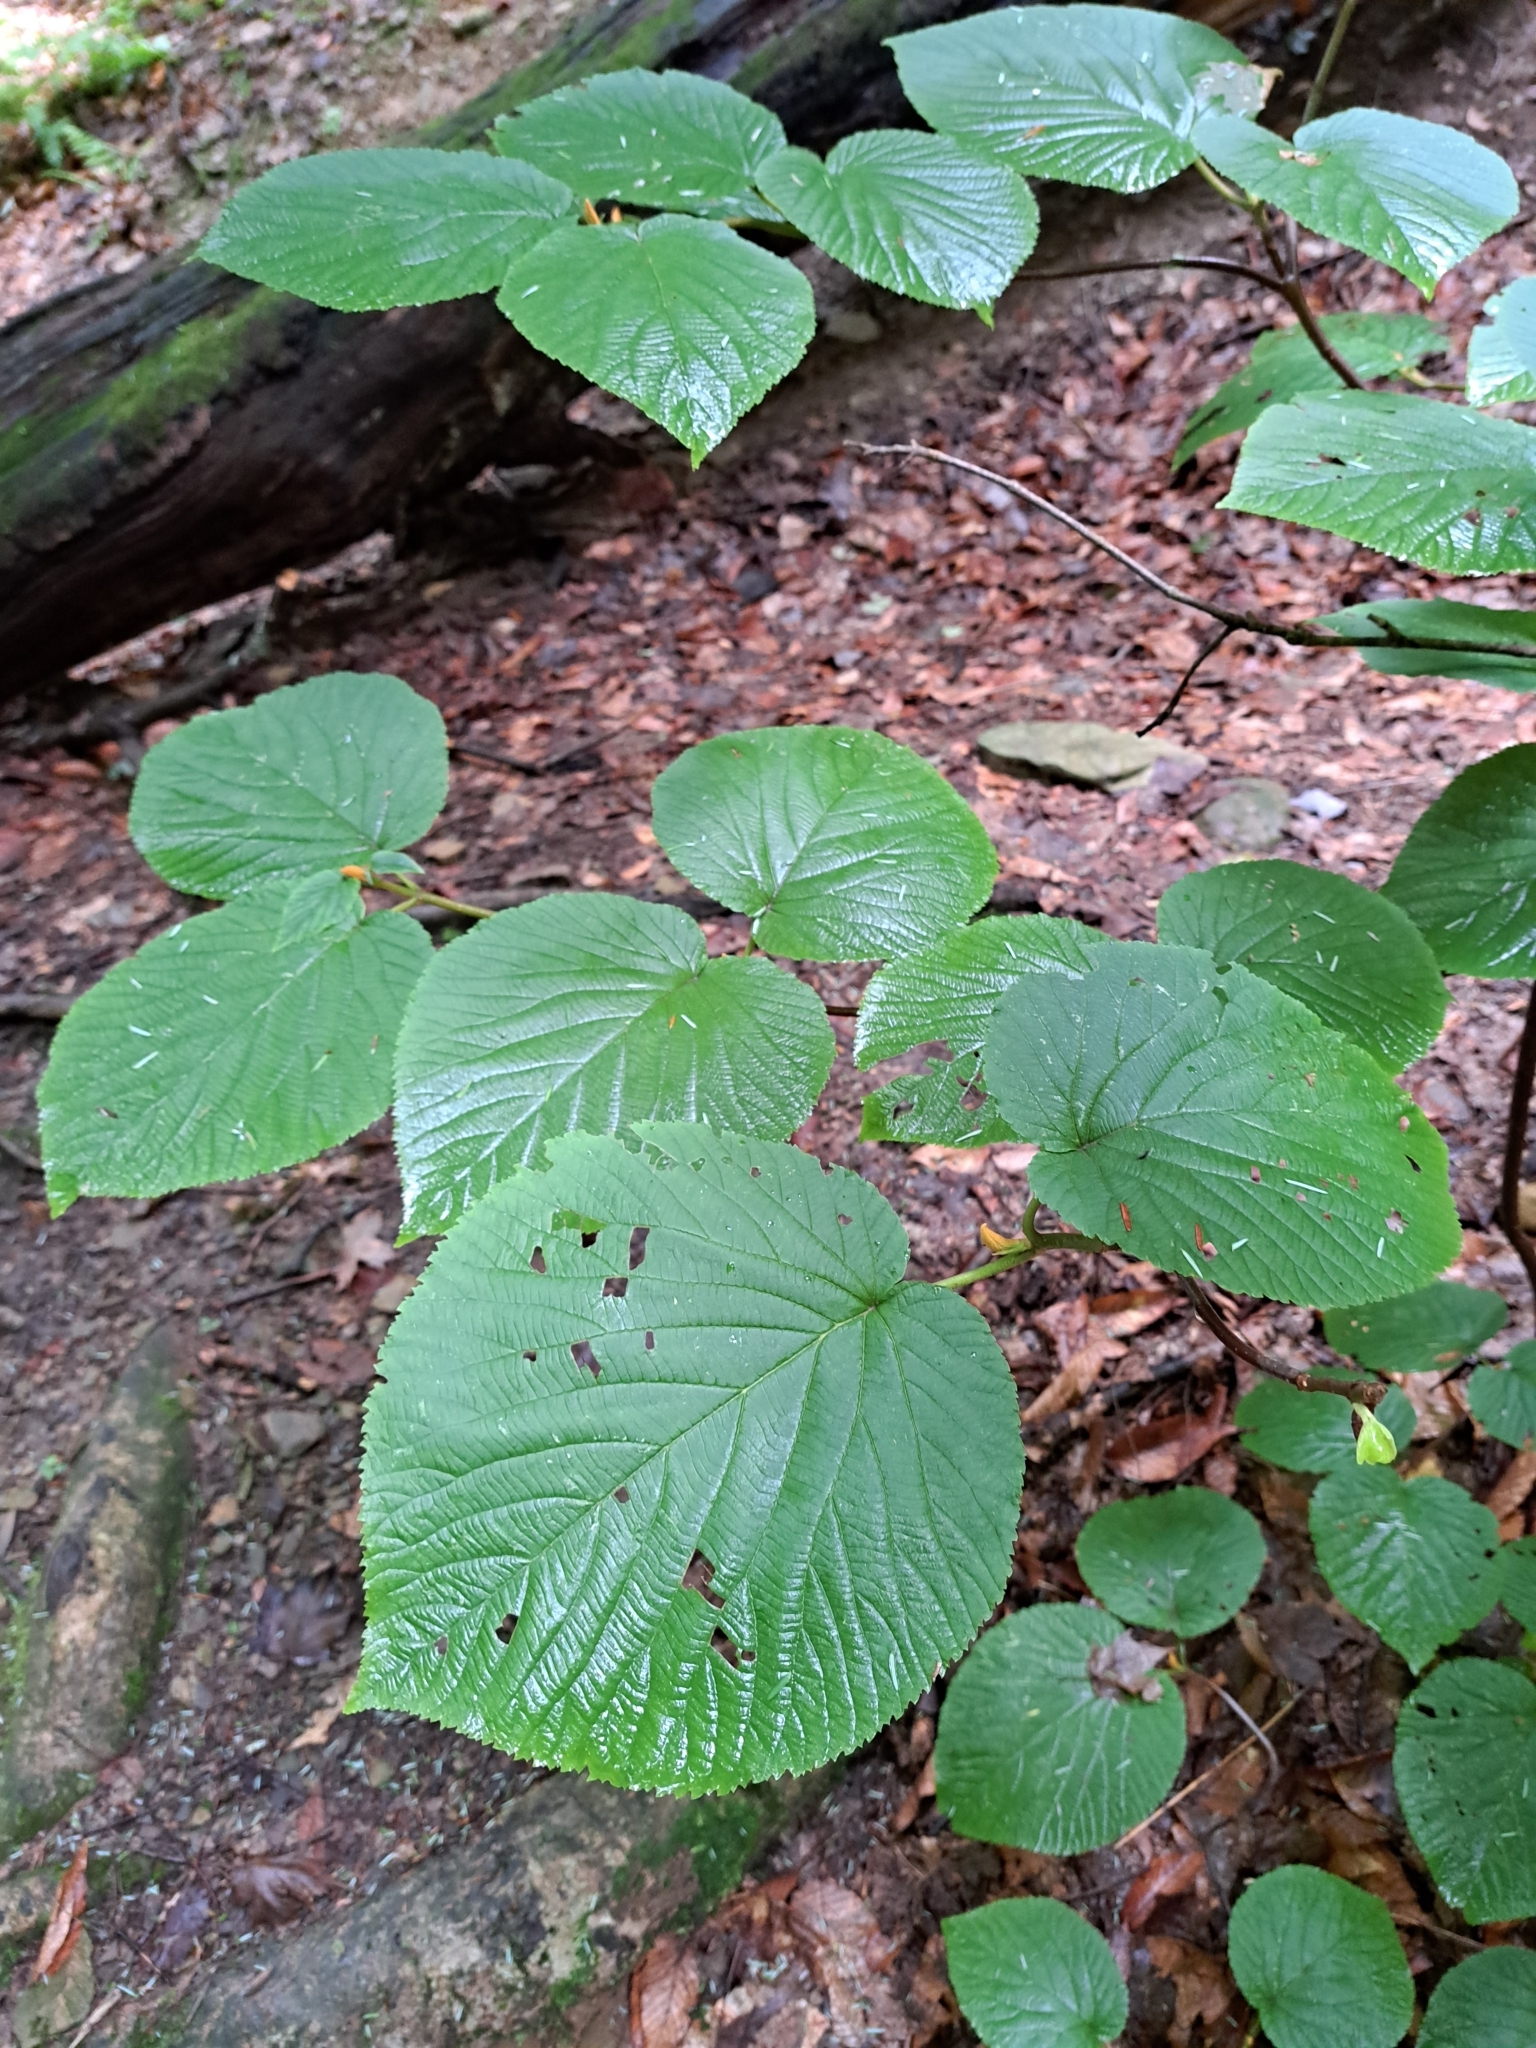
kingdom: Plantae
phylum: Tracheophyta
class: Magnoliopsida
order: Dipsacales
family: Viburnaceae
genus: Viburnum
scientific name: Viburnum lantanoides
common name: Hobblebush
